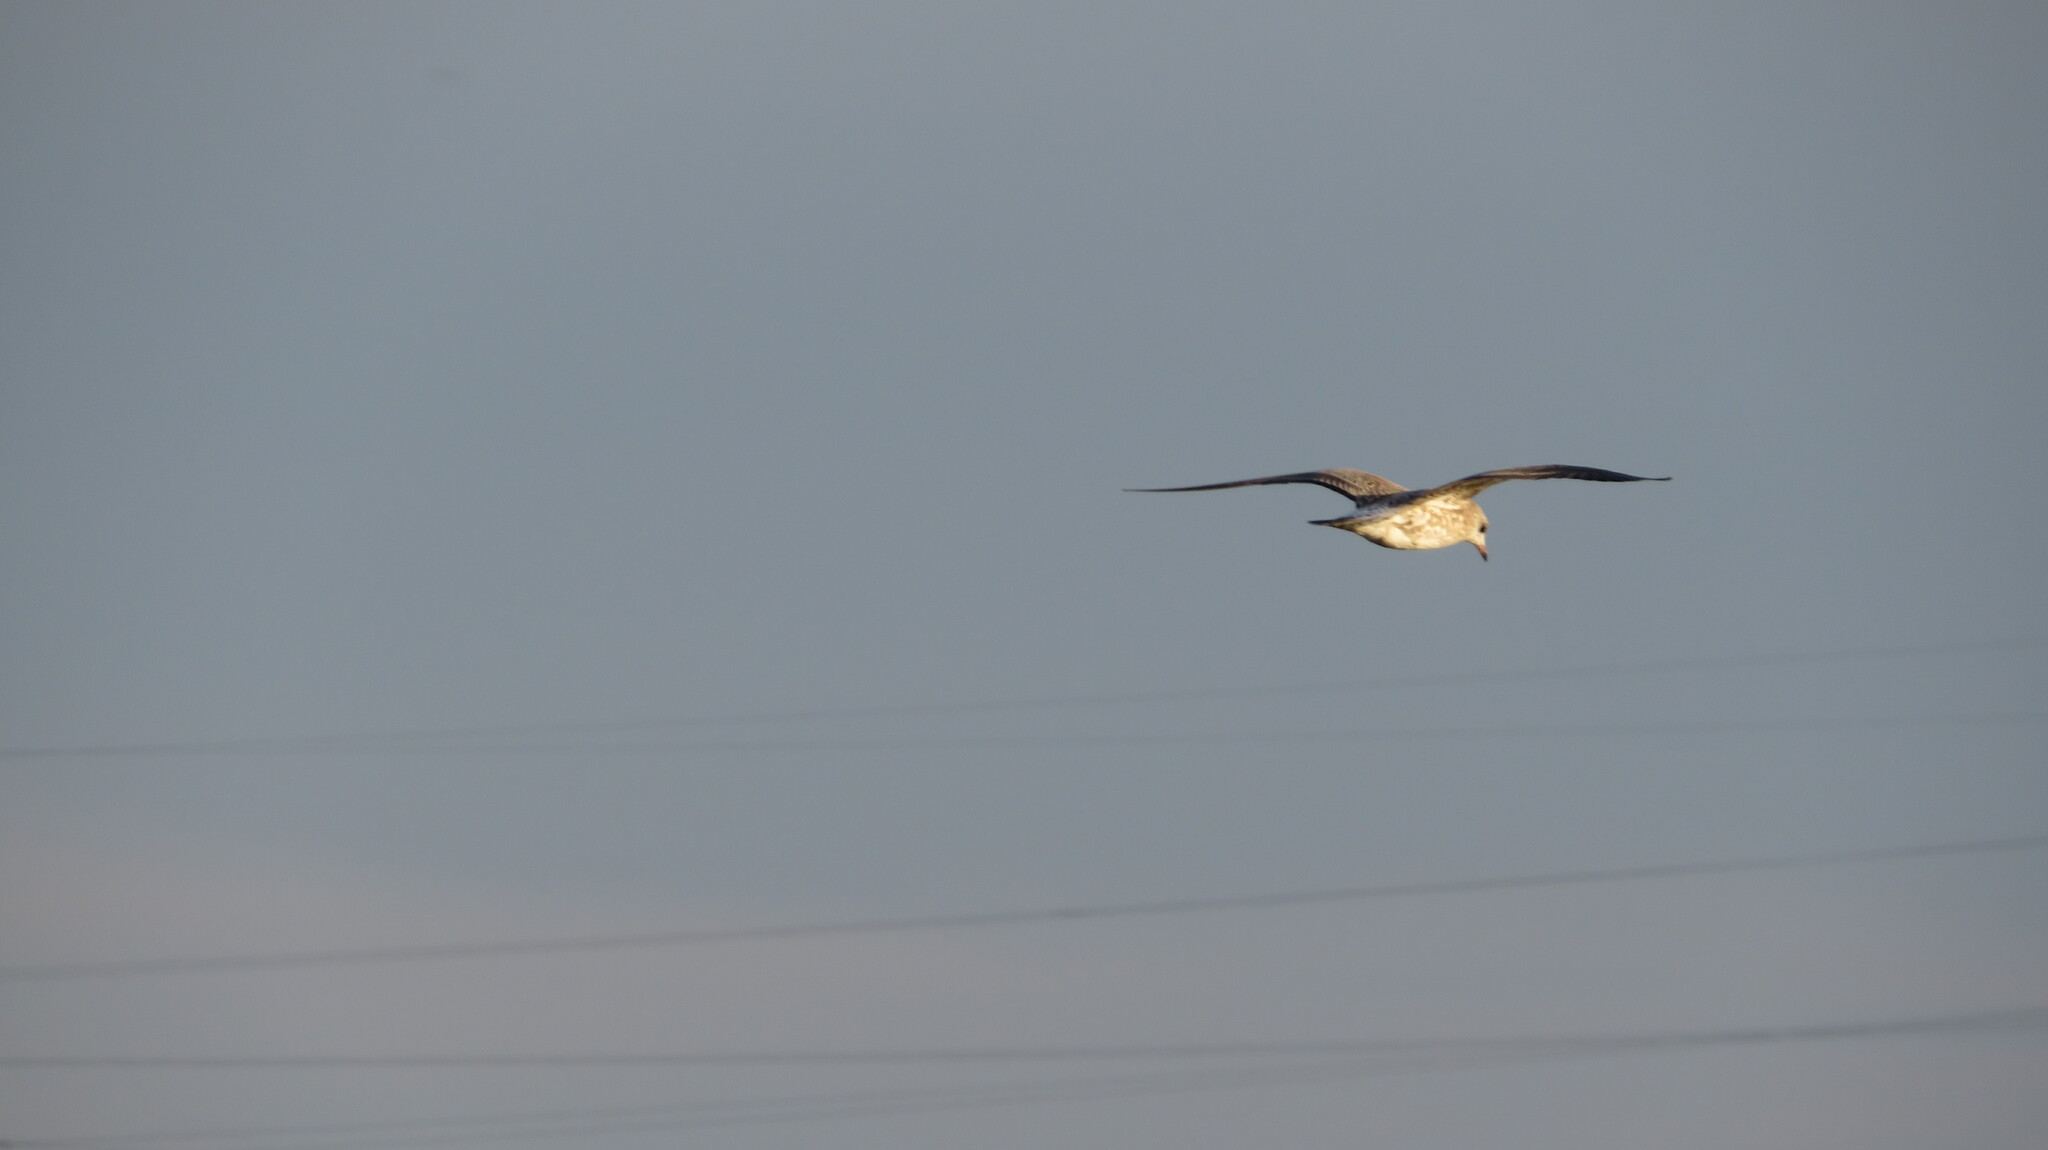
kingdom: Animalia
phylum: Chordata
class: Aves
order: Charadriiformes
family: Laridae
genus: Larus
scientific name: Larus canus
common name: Mew gull
